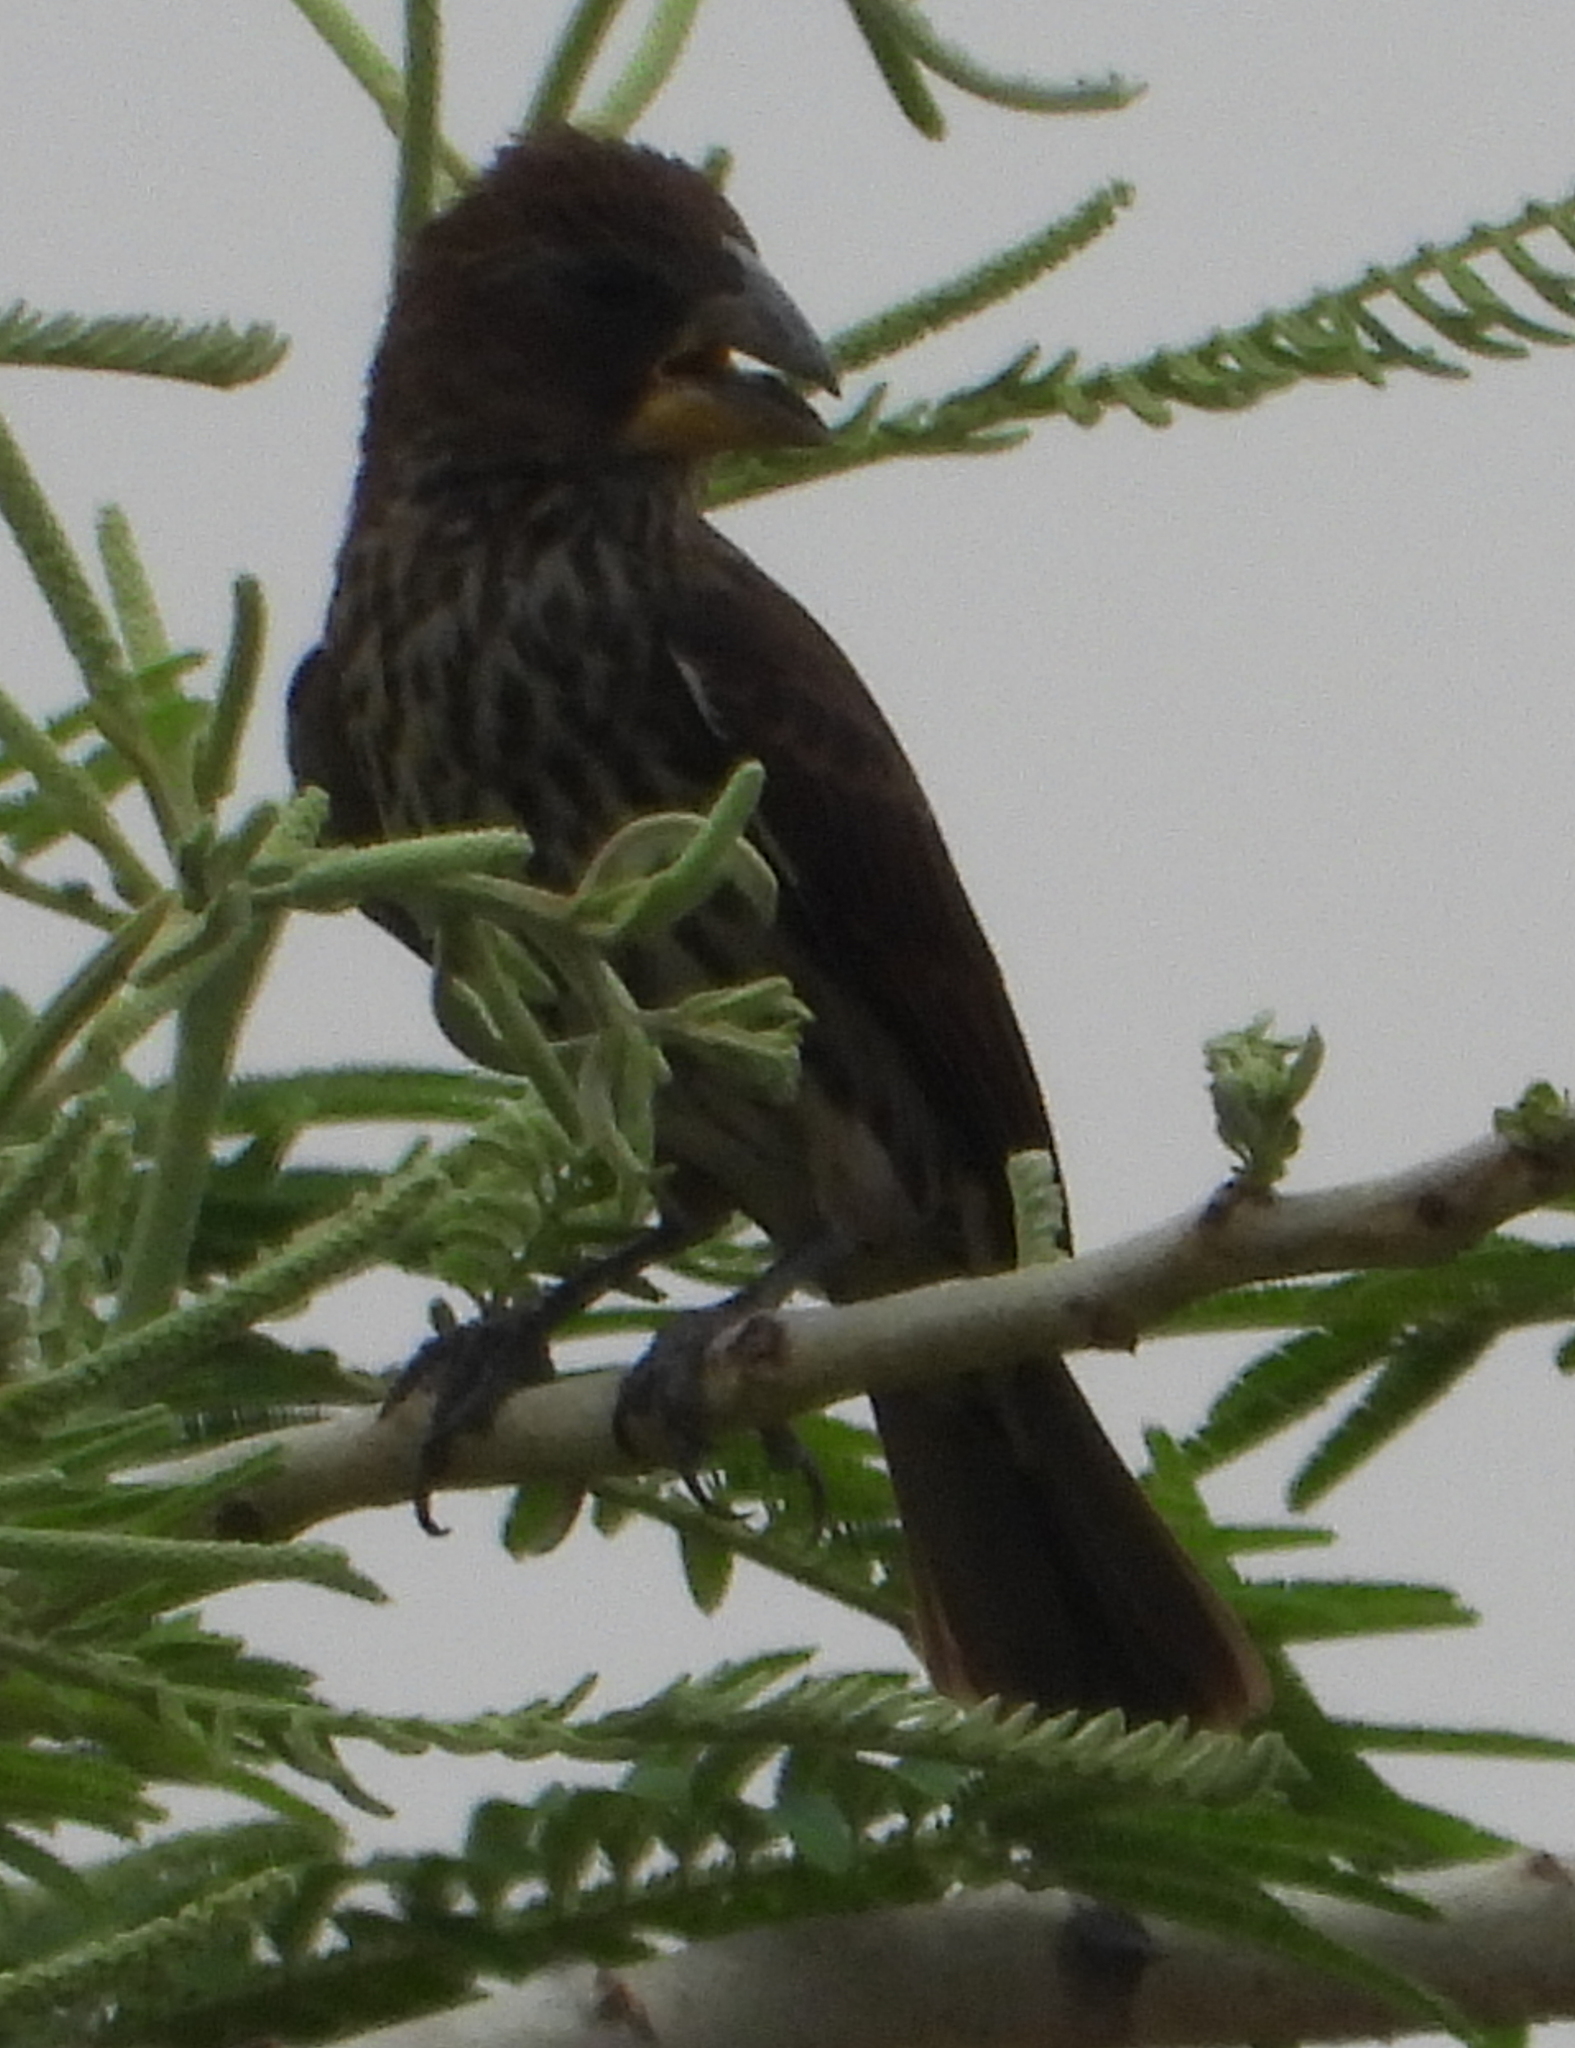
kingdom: Animalia
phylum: Chordata
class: Aves
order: Passeriformes
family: Ploceidae
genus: Amblyospiza
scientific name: Amblyospiza albifrons
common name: Thick-billed weaver
